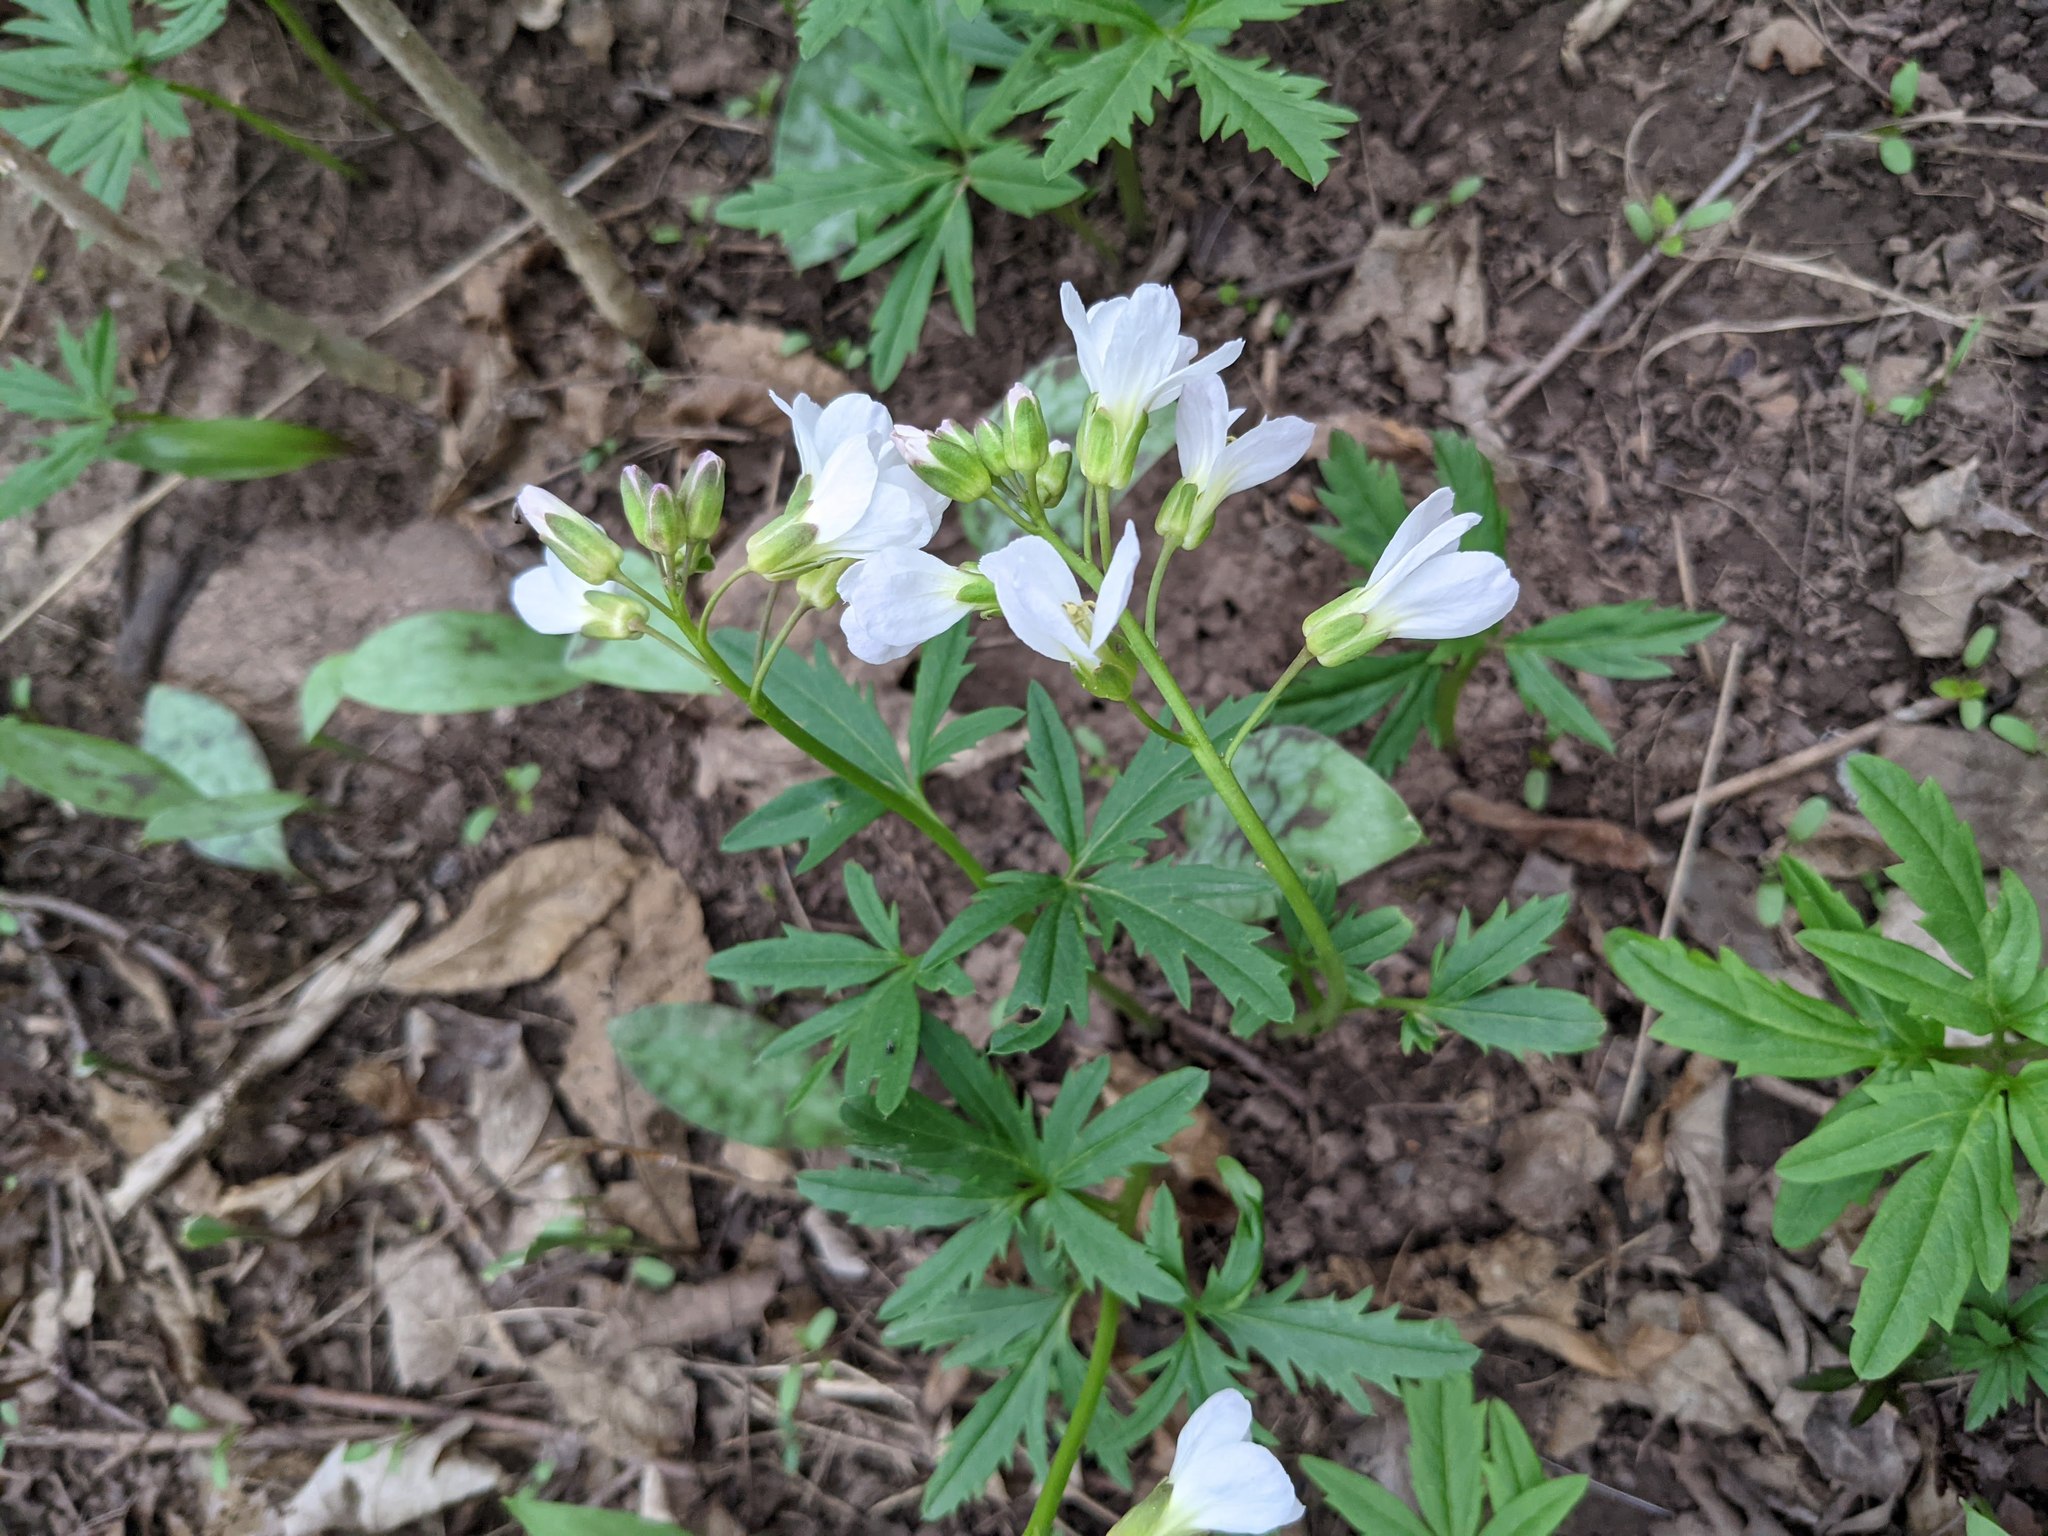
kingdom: Plantae
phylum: Tracheophyta
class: Magnoliopsida
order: Brassicales
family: Brassicaceae
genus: Cardamine
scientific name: Cardamine concatenata
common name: Cut-leaf toothcup
